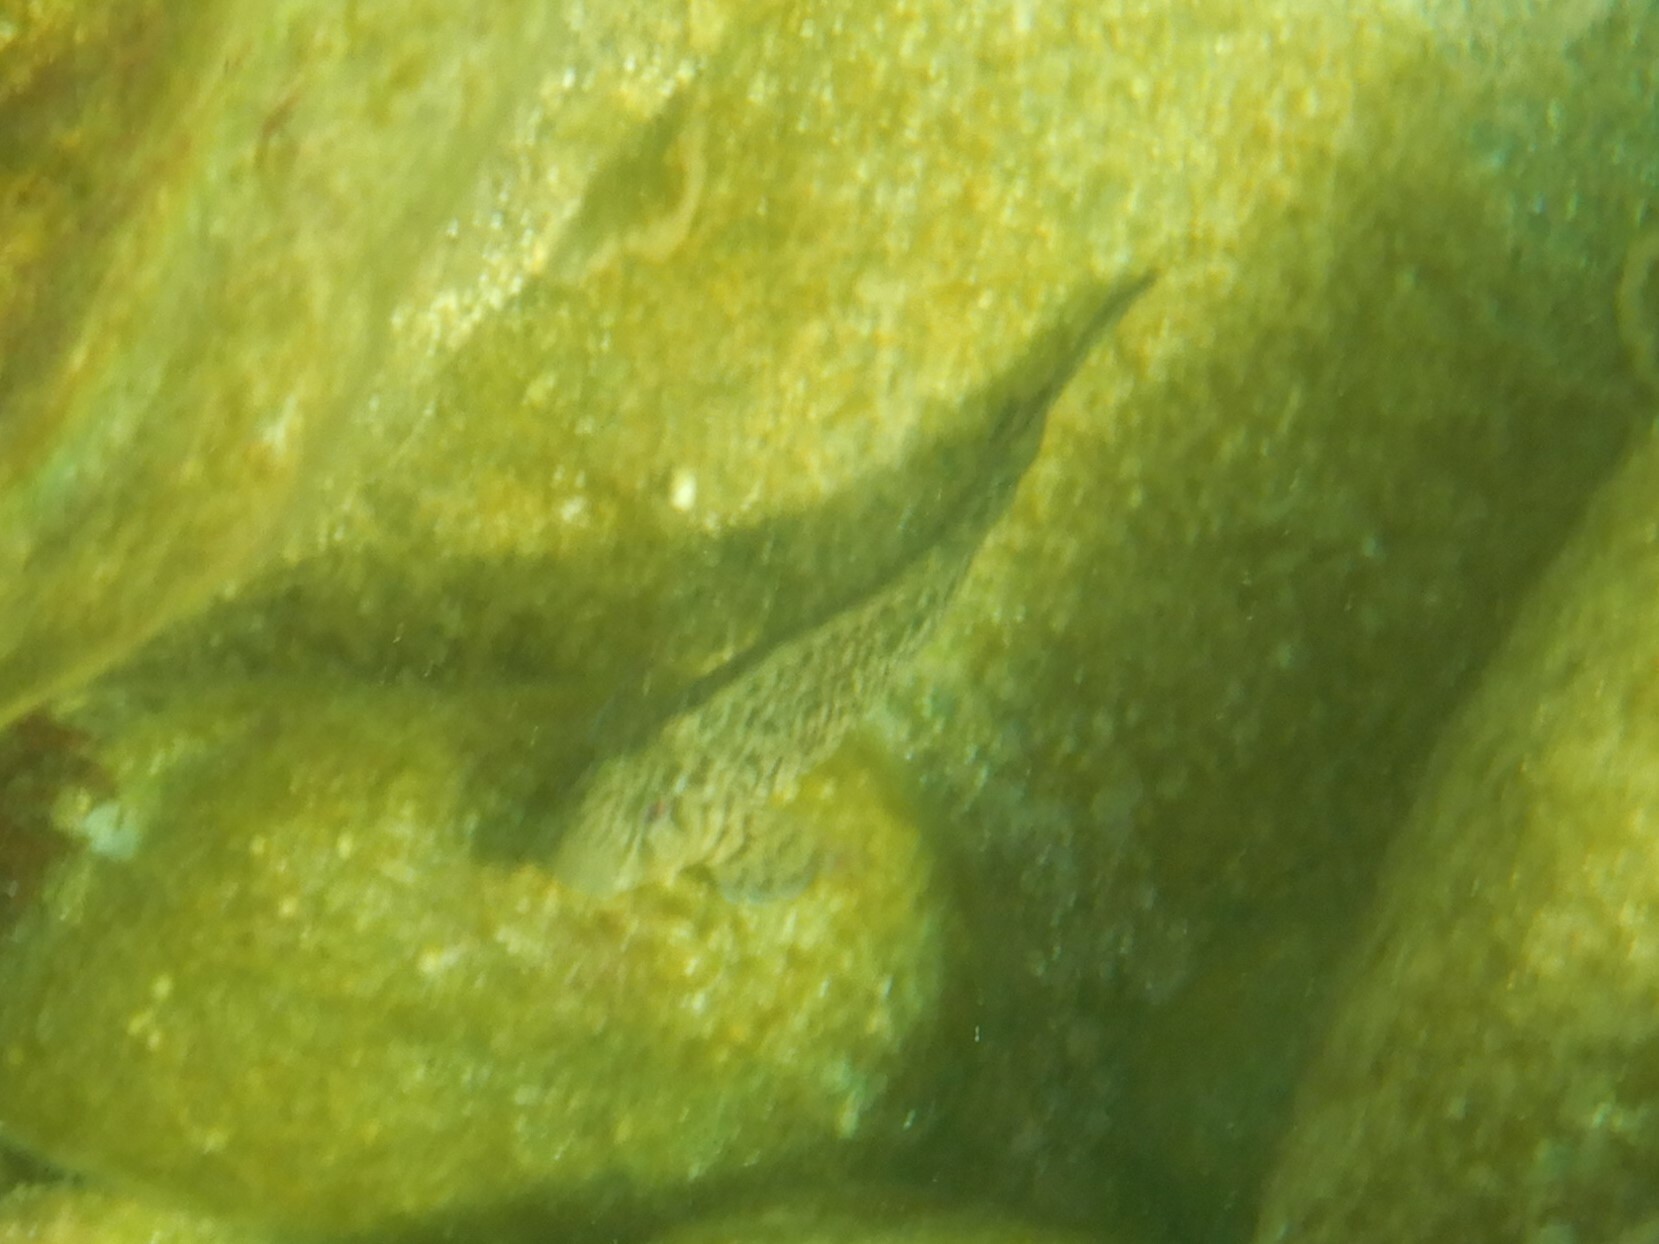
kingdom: Animalia
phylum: Chordata
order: Perciformes
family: Blenniidae
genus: Parablennius
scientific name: Parablennius sanguinolentus
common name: Black sea blenny
